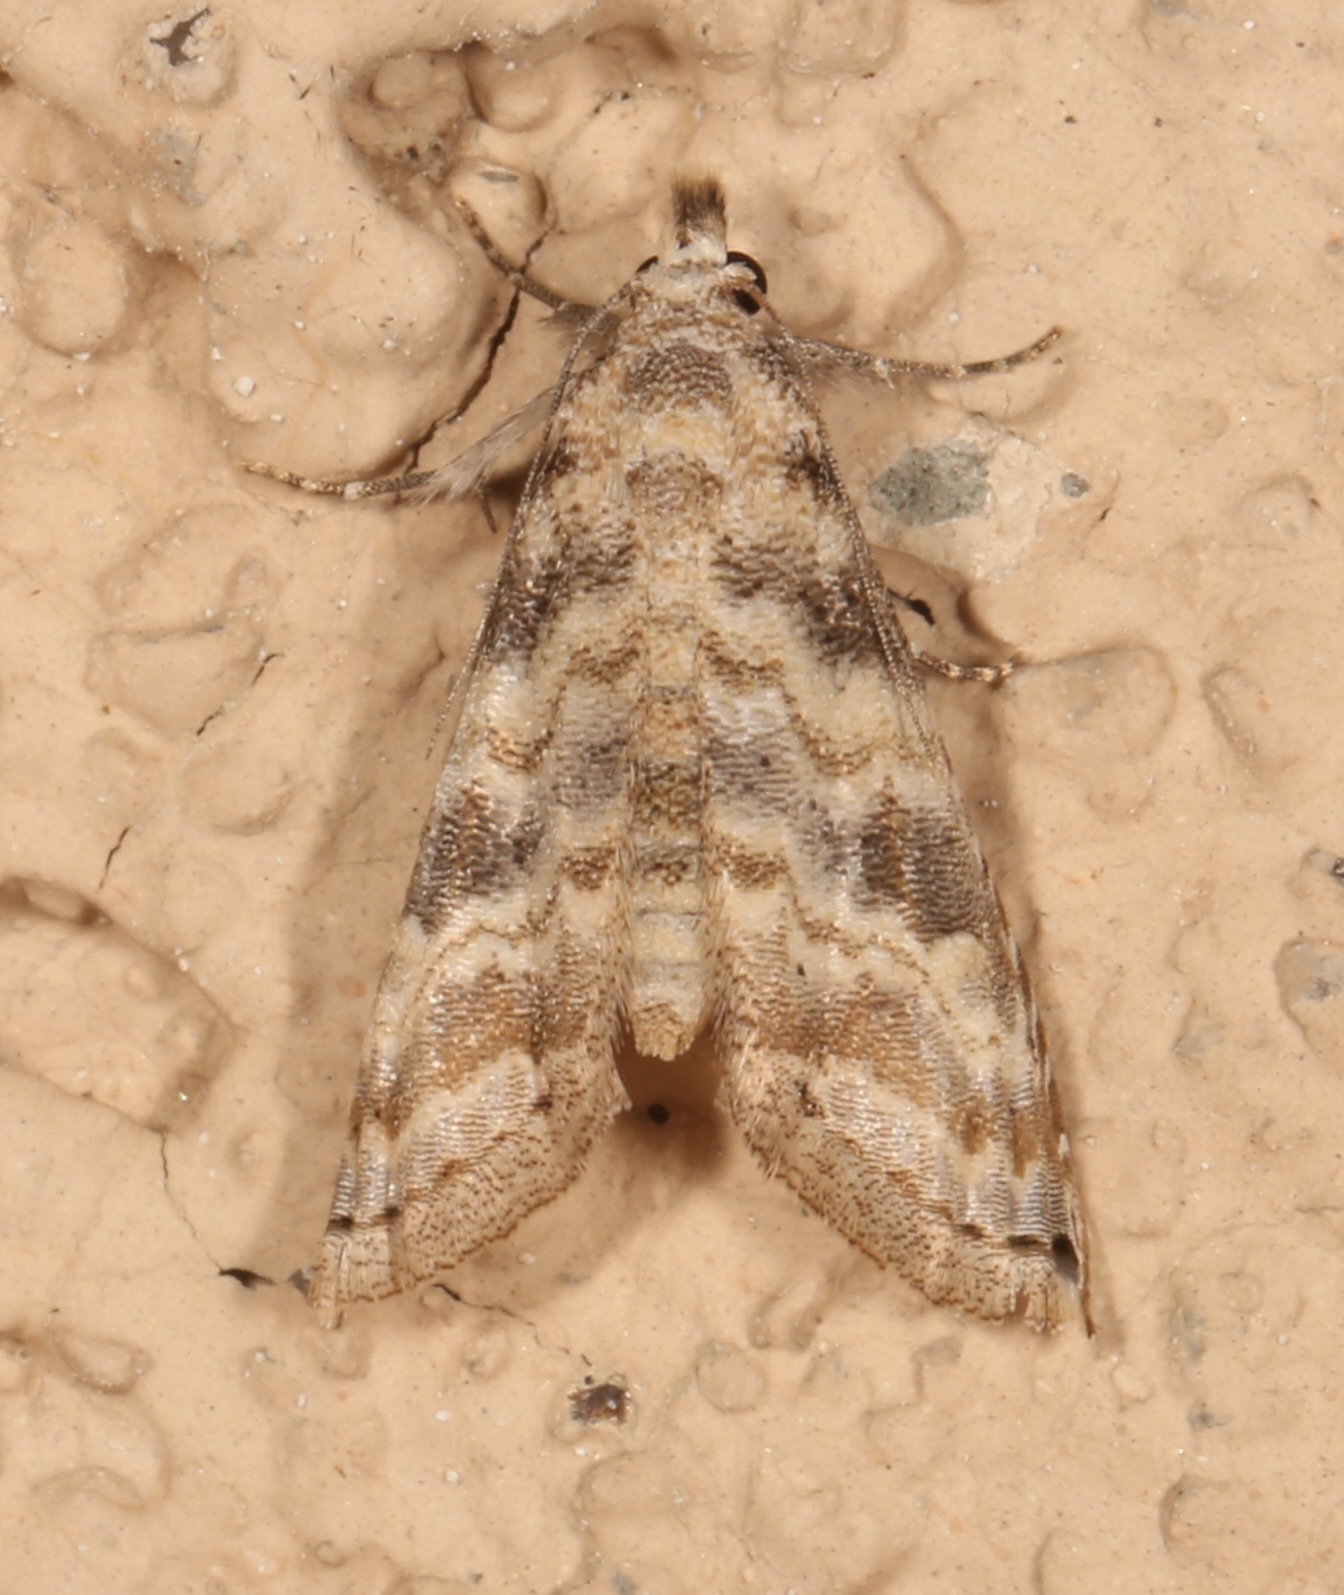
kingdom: Animalia
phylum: Arthropoda
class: Insecta
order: Lepidoptera
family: Noctuidae
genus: Phobolosia
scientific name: Phobolosia anfracta
